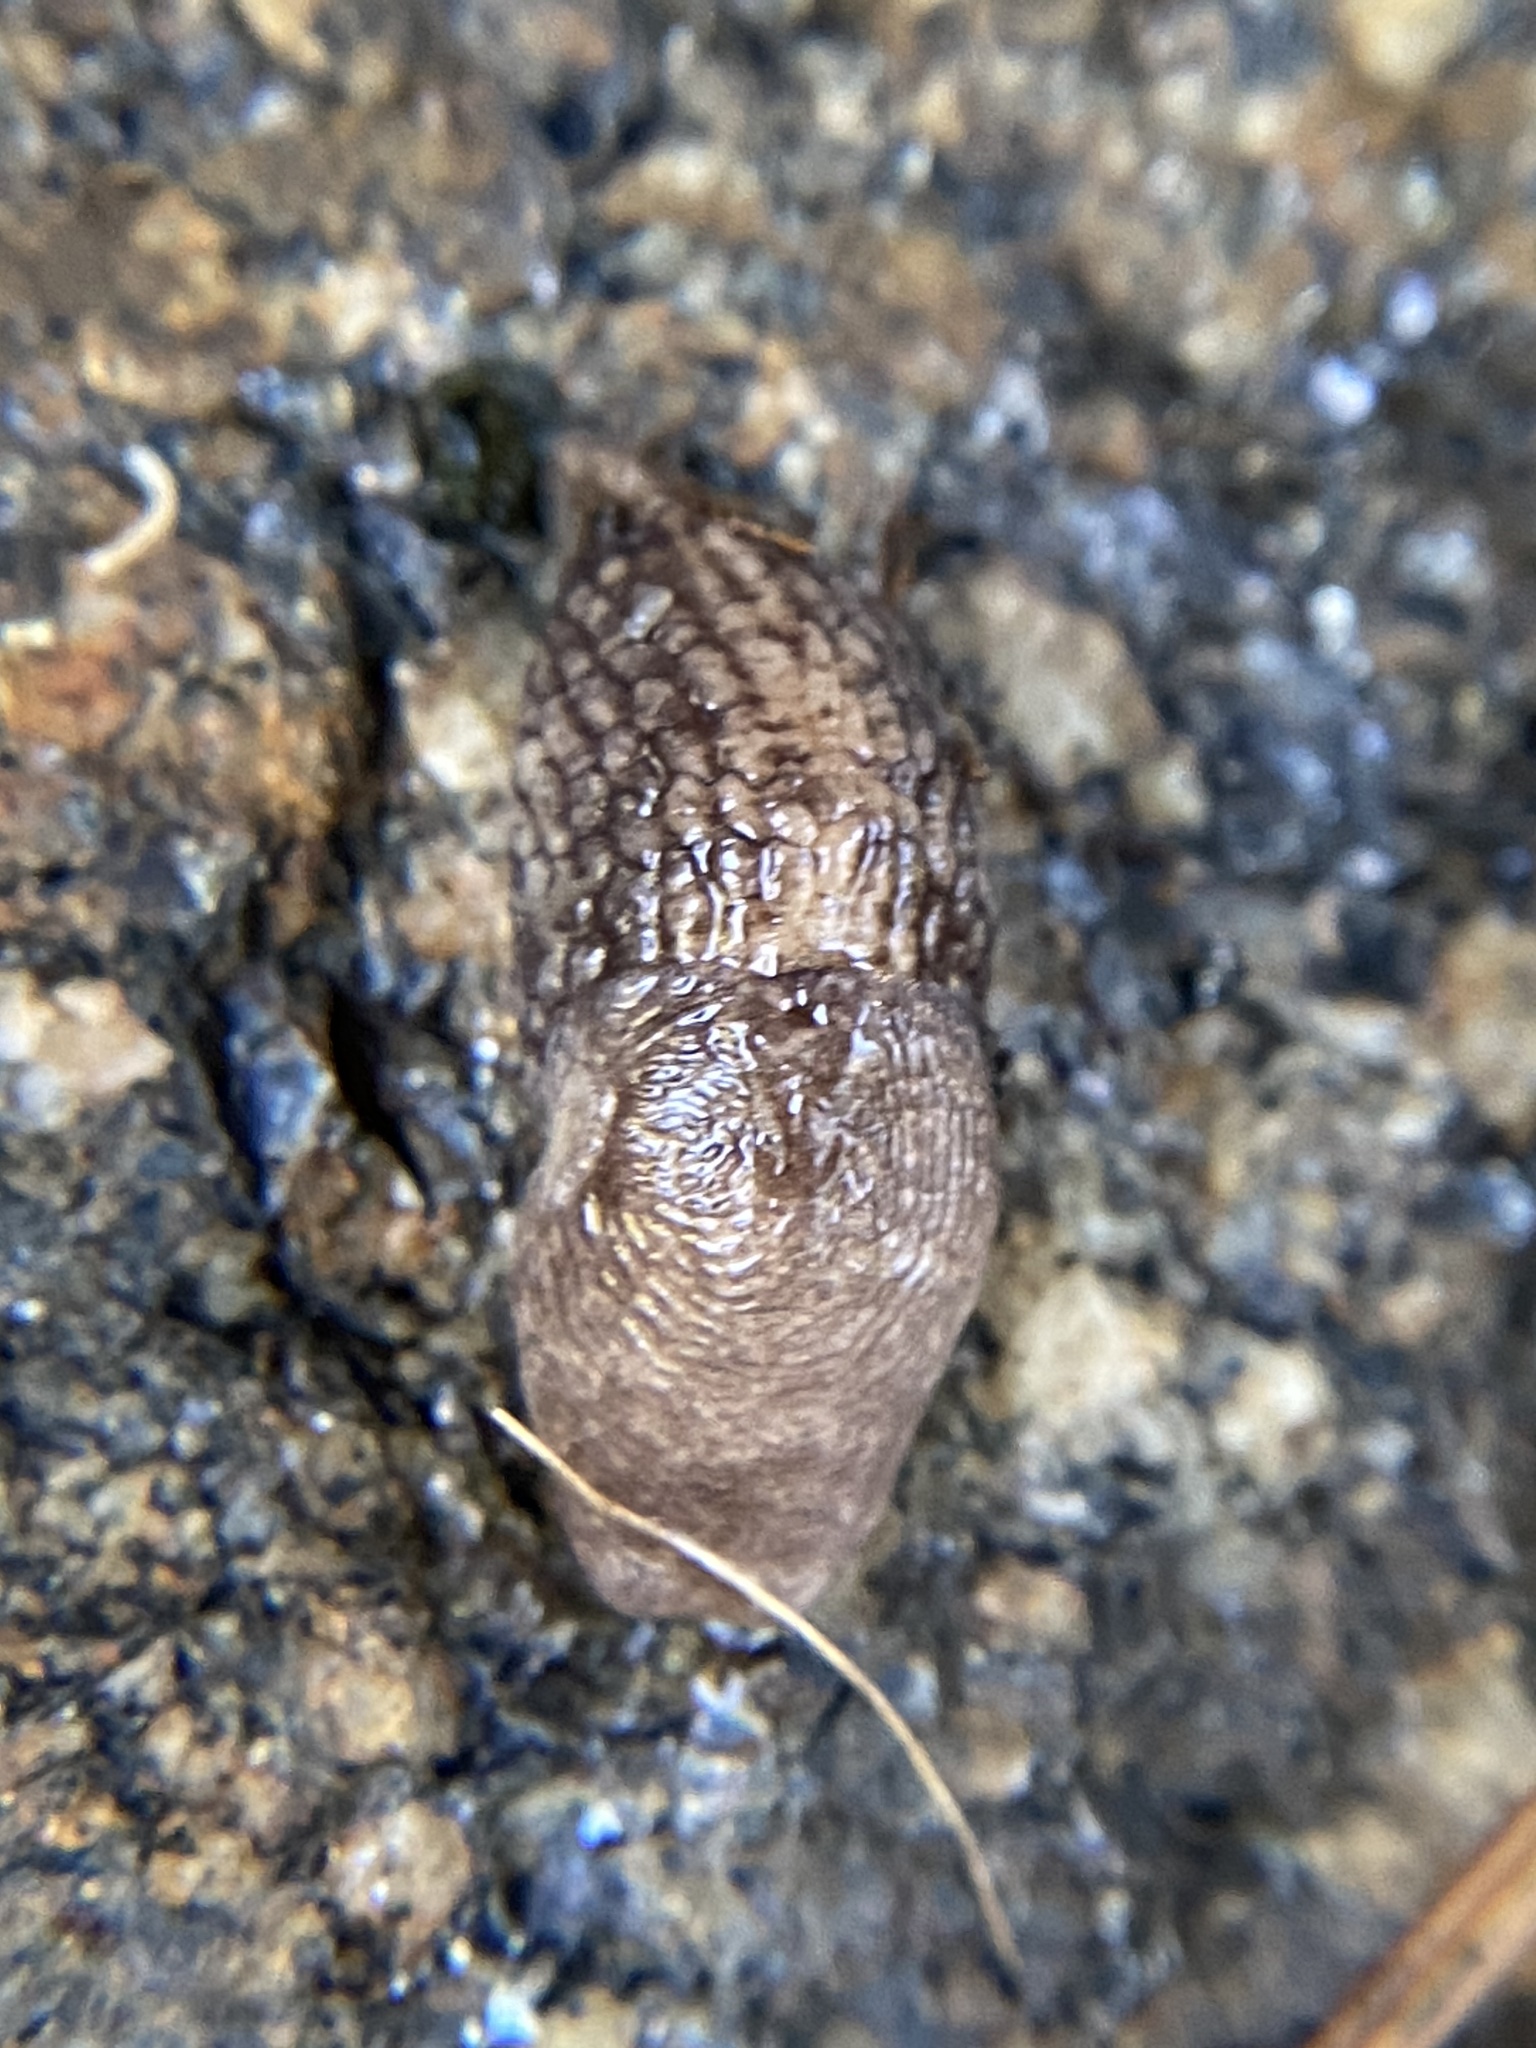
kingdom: Animalia
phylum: Mollusca
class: Gastropoda
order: Stylommatophora
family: Agriolimacidae
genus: Deroceras
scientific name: Deroceras reticulatum
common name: Gray field slug
